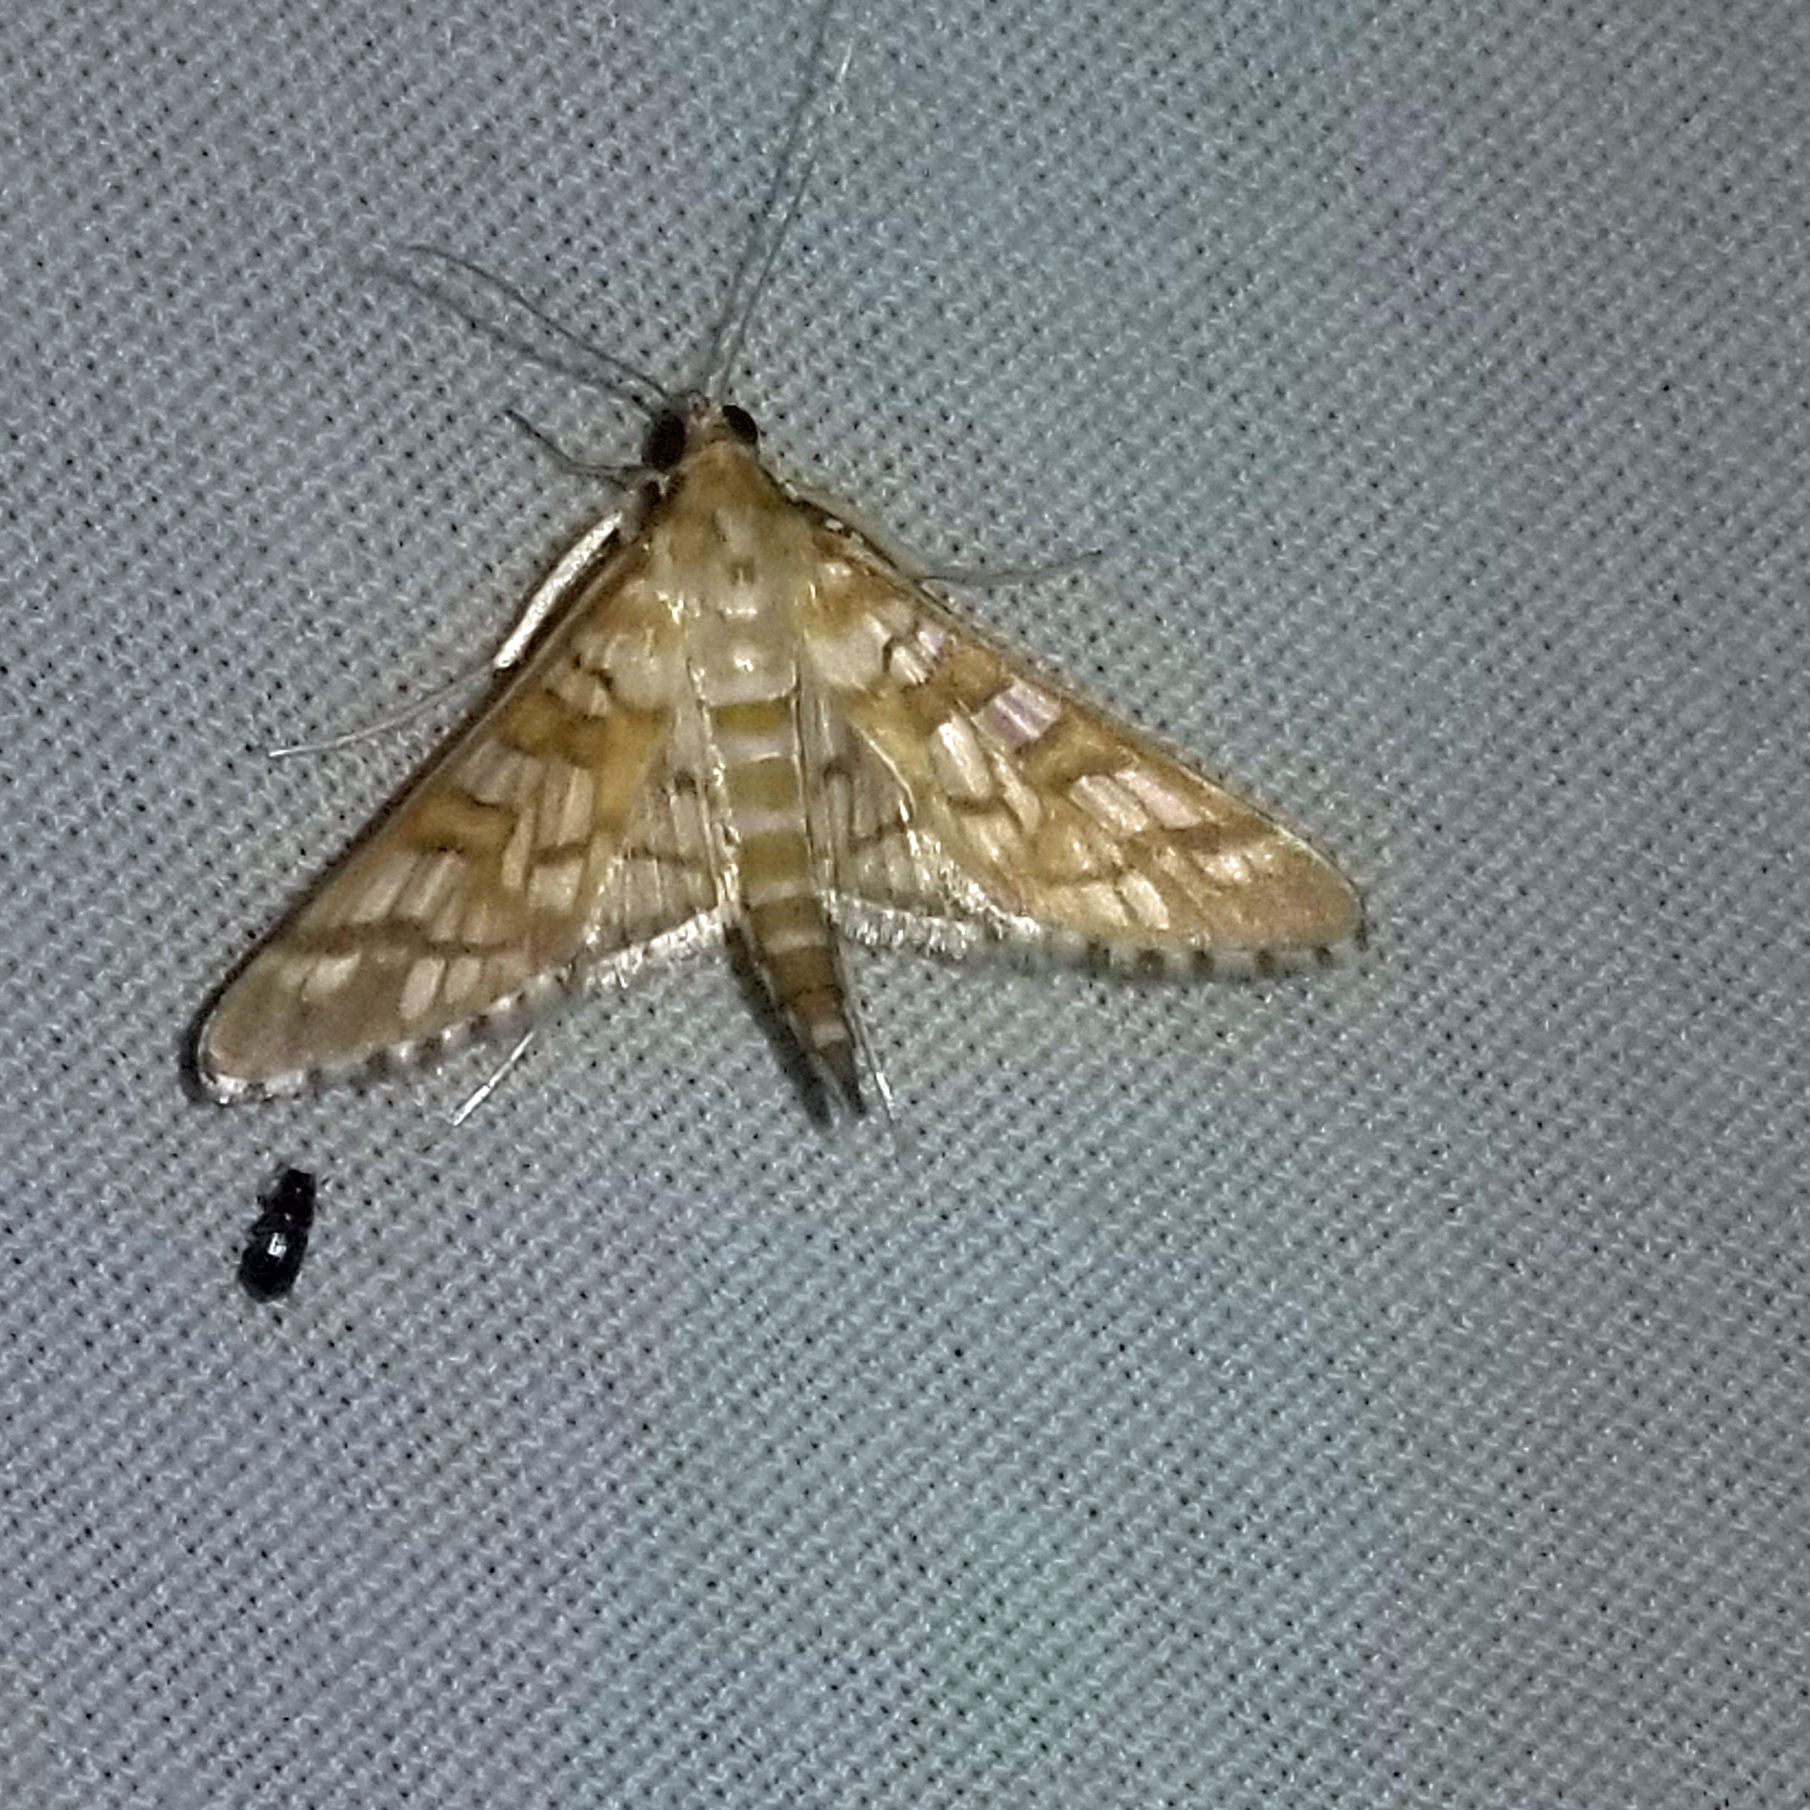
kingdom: Animalia
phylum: Arthropoda
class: Insecta
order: Lepidoptera
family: Crambidae
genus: Epipagis
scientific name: Epipagis fenestralis
